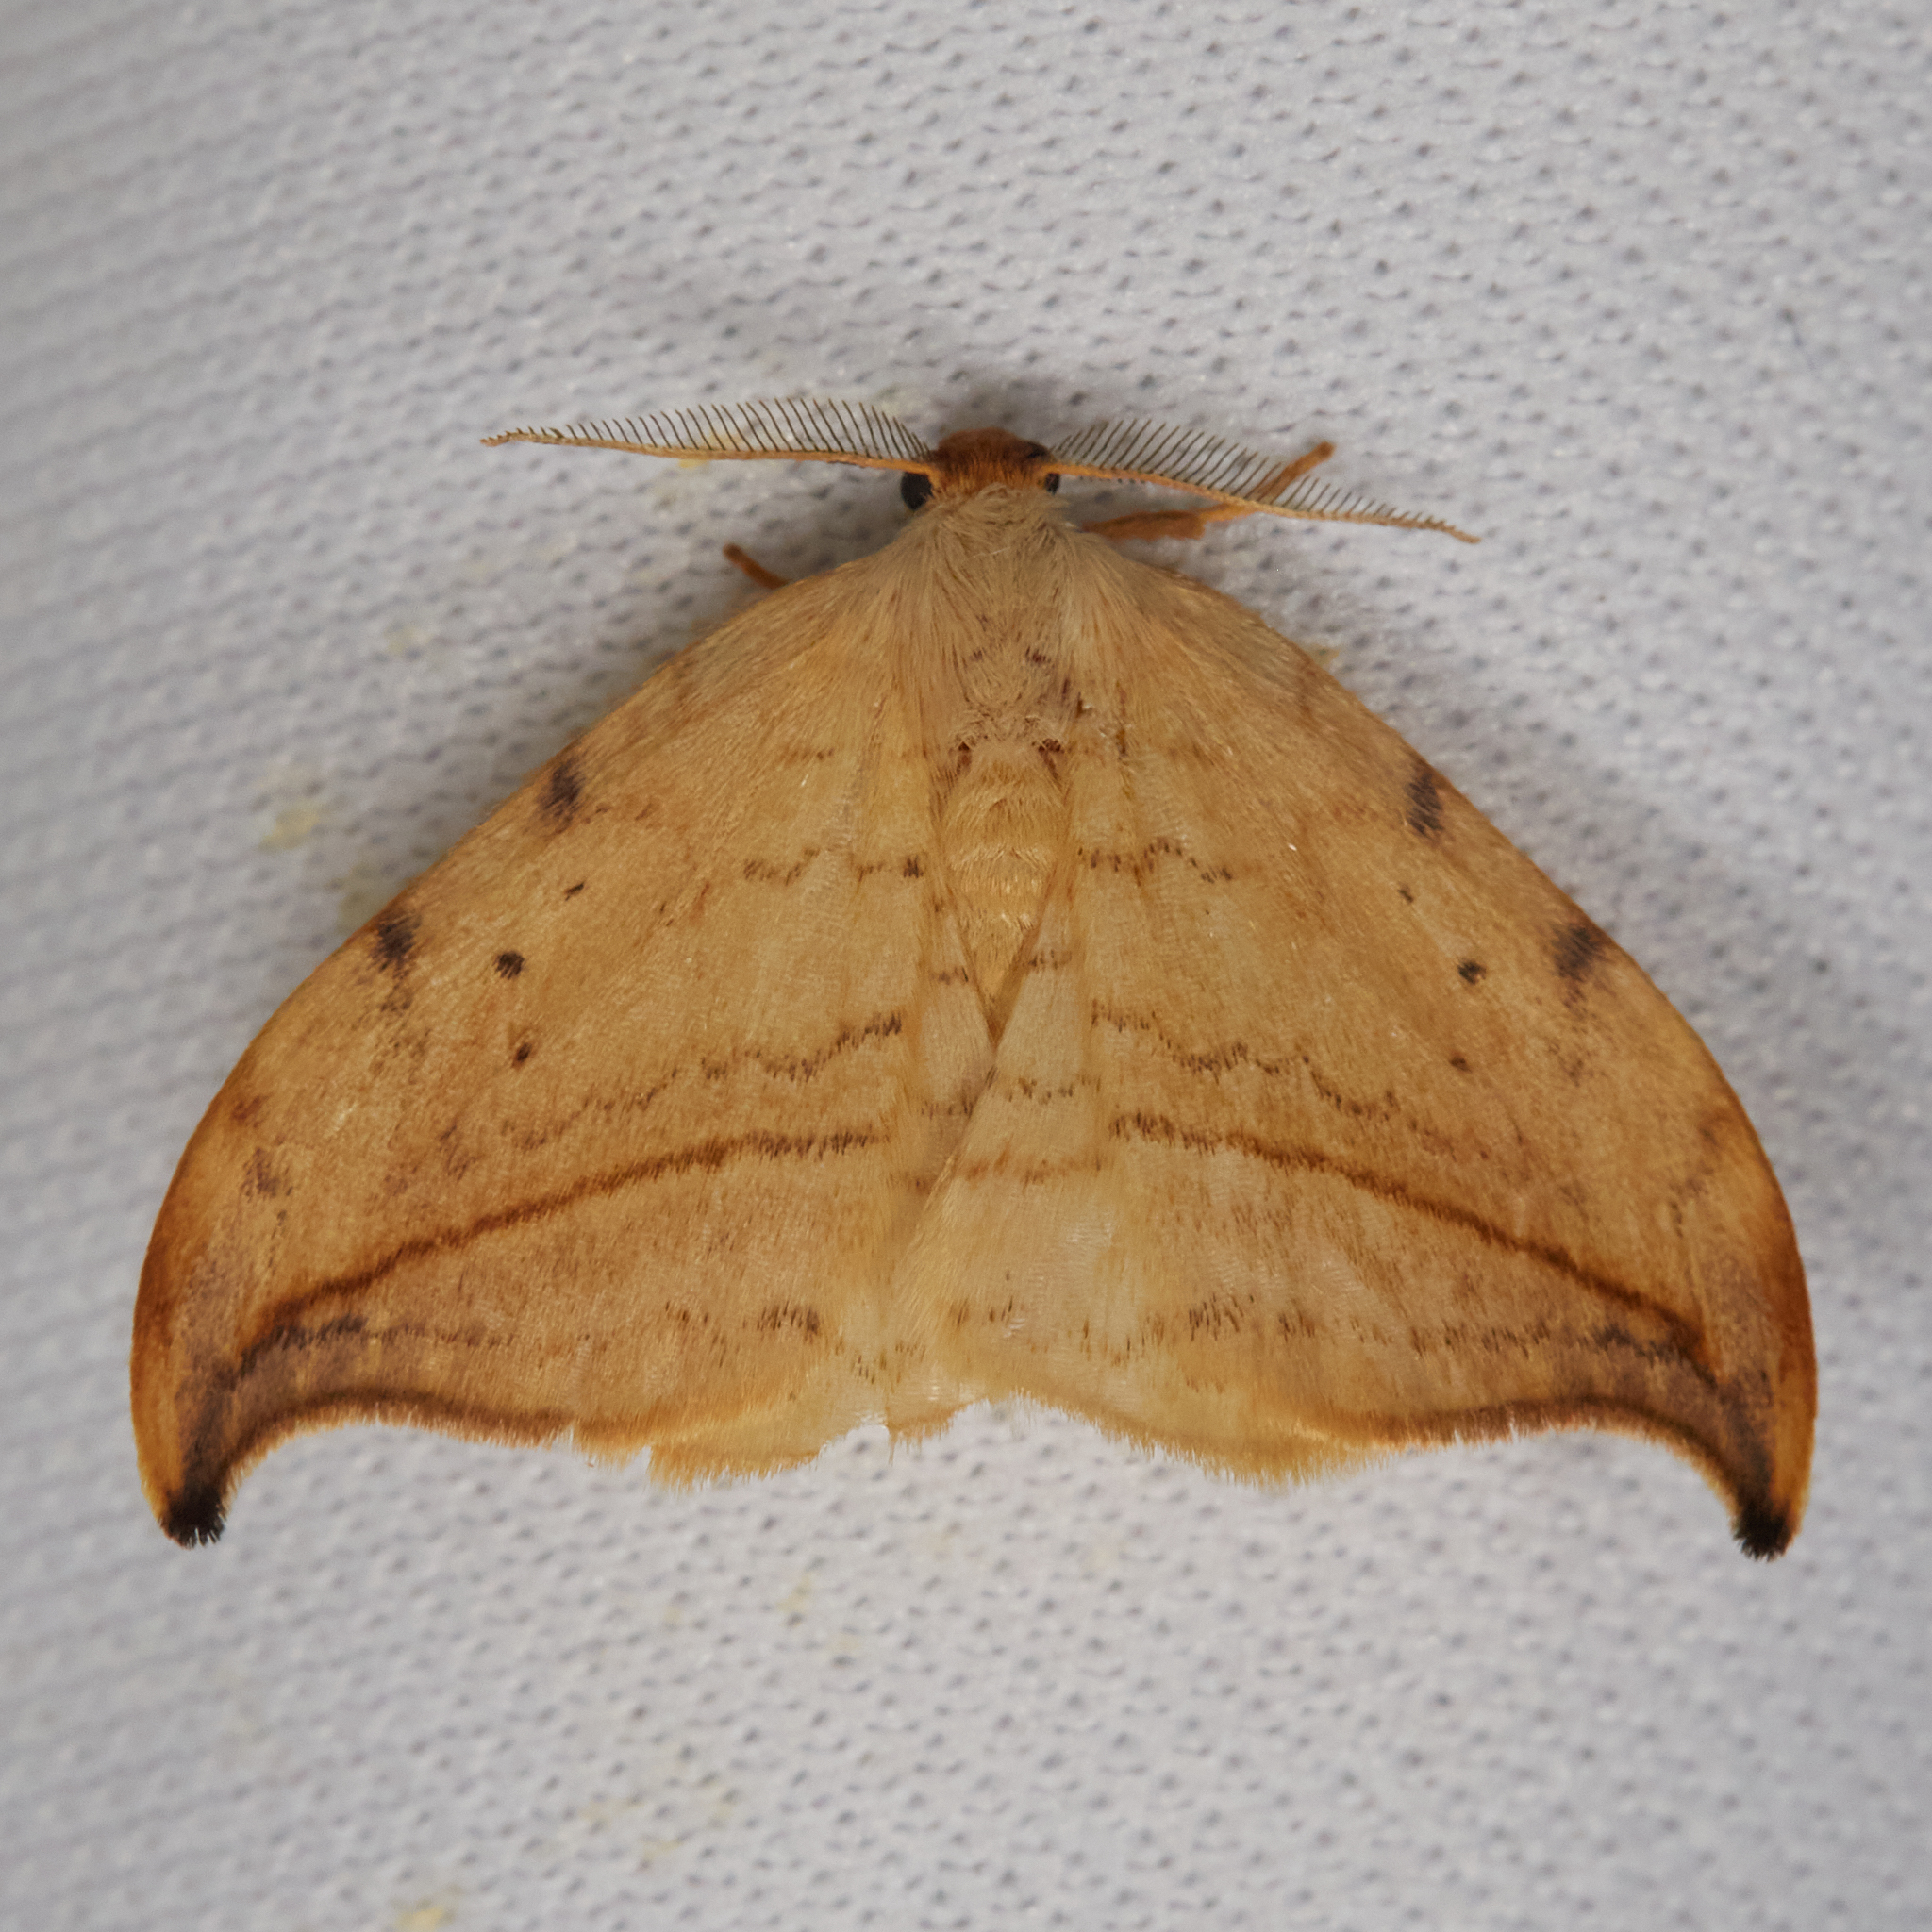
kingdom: Animalia
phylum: Arthropoda
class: Insecta
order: Lepidoptera
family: Drepanidae
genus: Drepana
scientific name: Drepana arcuata
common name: Arched hooktip moth
